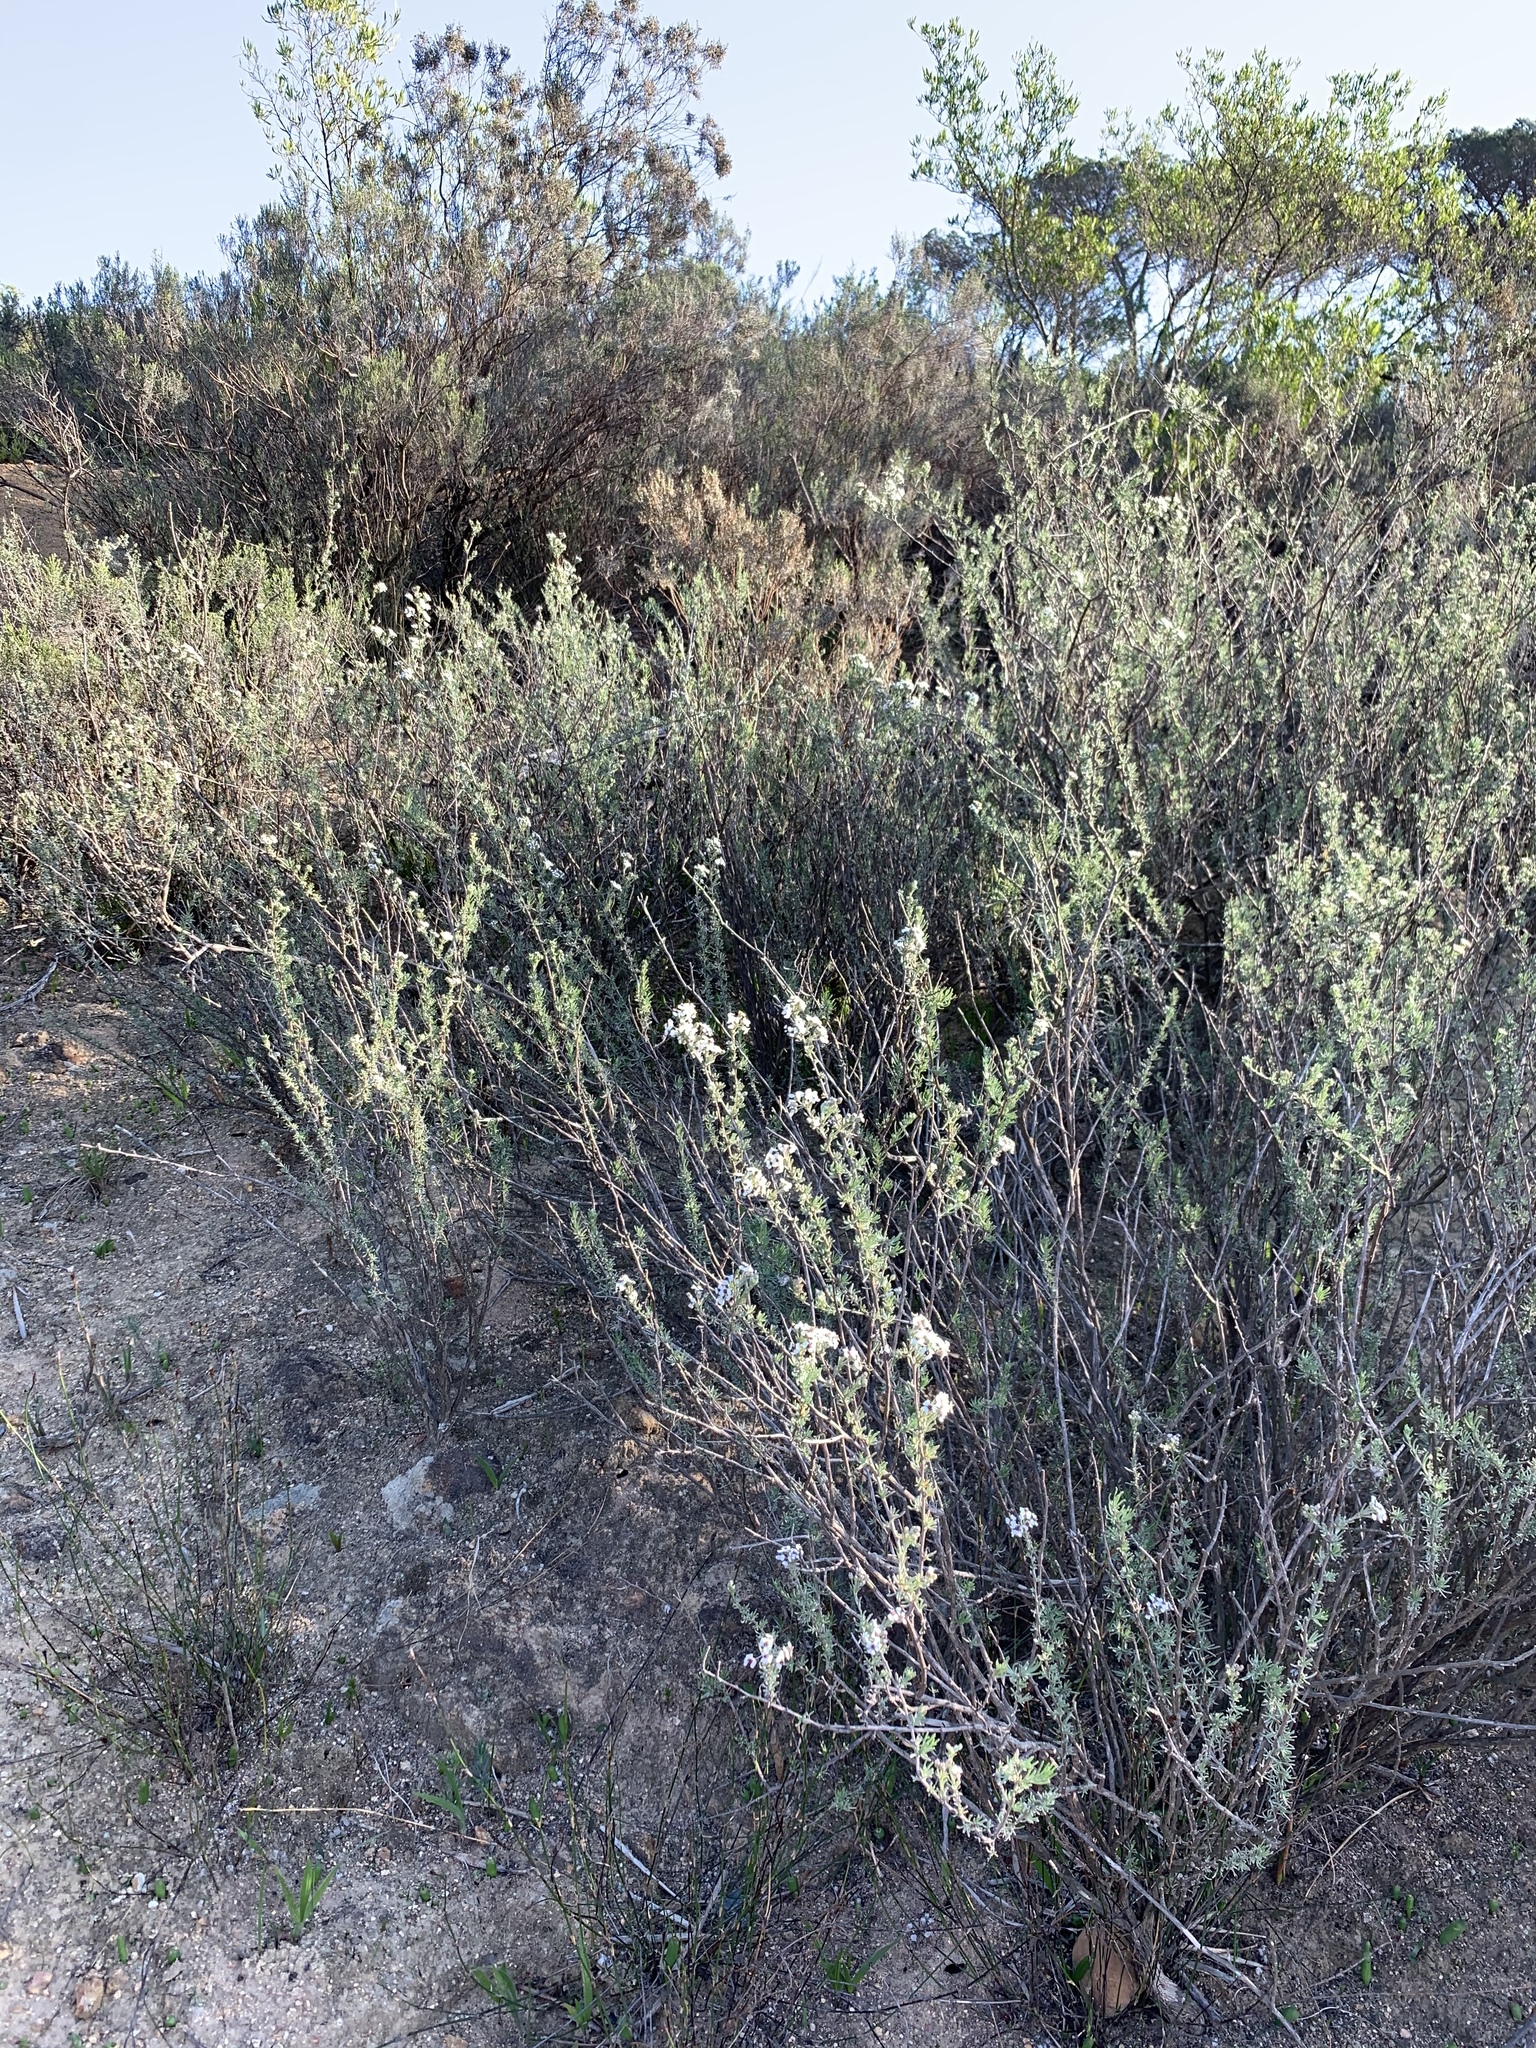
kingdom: Plantae
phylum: Tracheophyta
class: Magnoliopsida
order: Asterales
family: Asteraceae
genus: Eriocephalus
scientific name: Eriocephalus africanus
